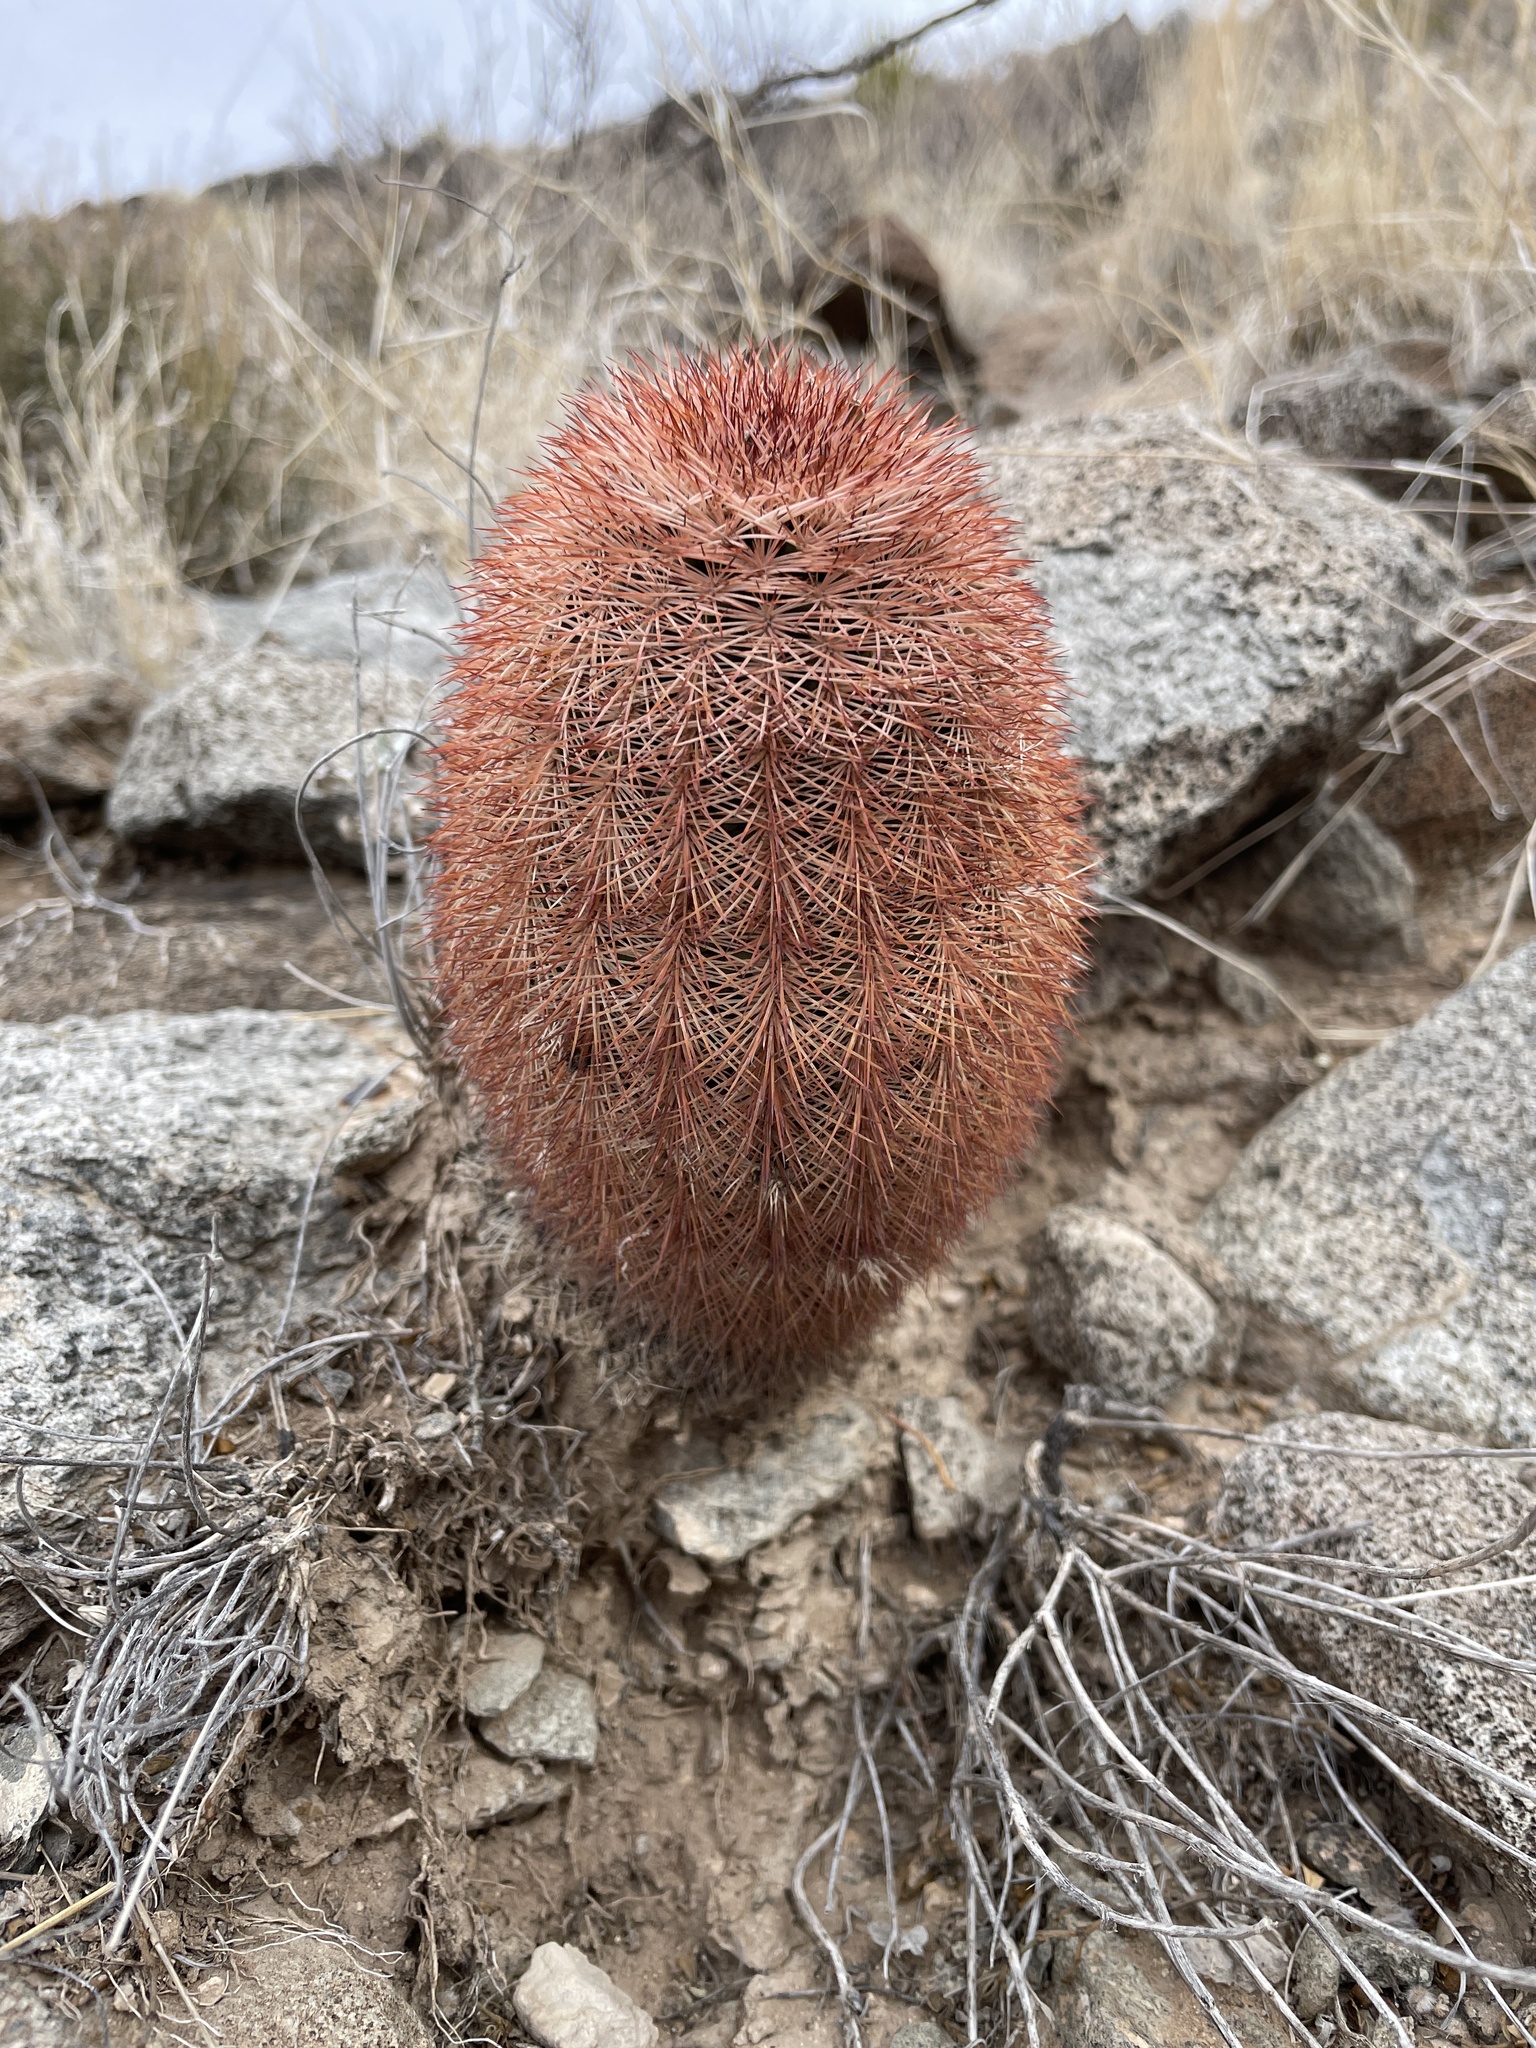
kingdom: Plantae
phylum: Tracheophyta
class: Magnoliopsida
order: Caryophyllales
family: Cactaceae
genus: Echinocereus
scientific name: Echinocereus dasyacanthus
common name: Spiny hedgehog cactus
